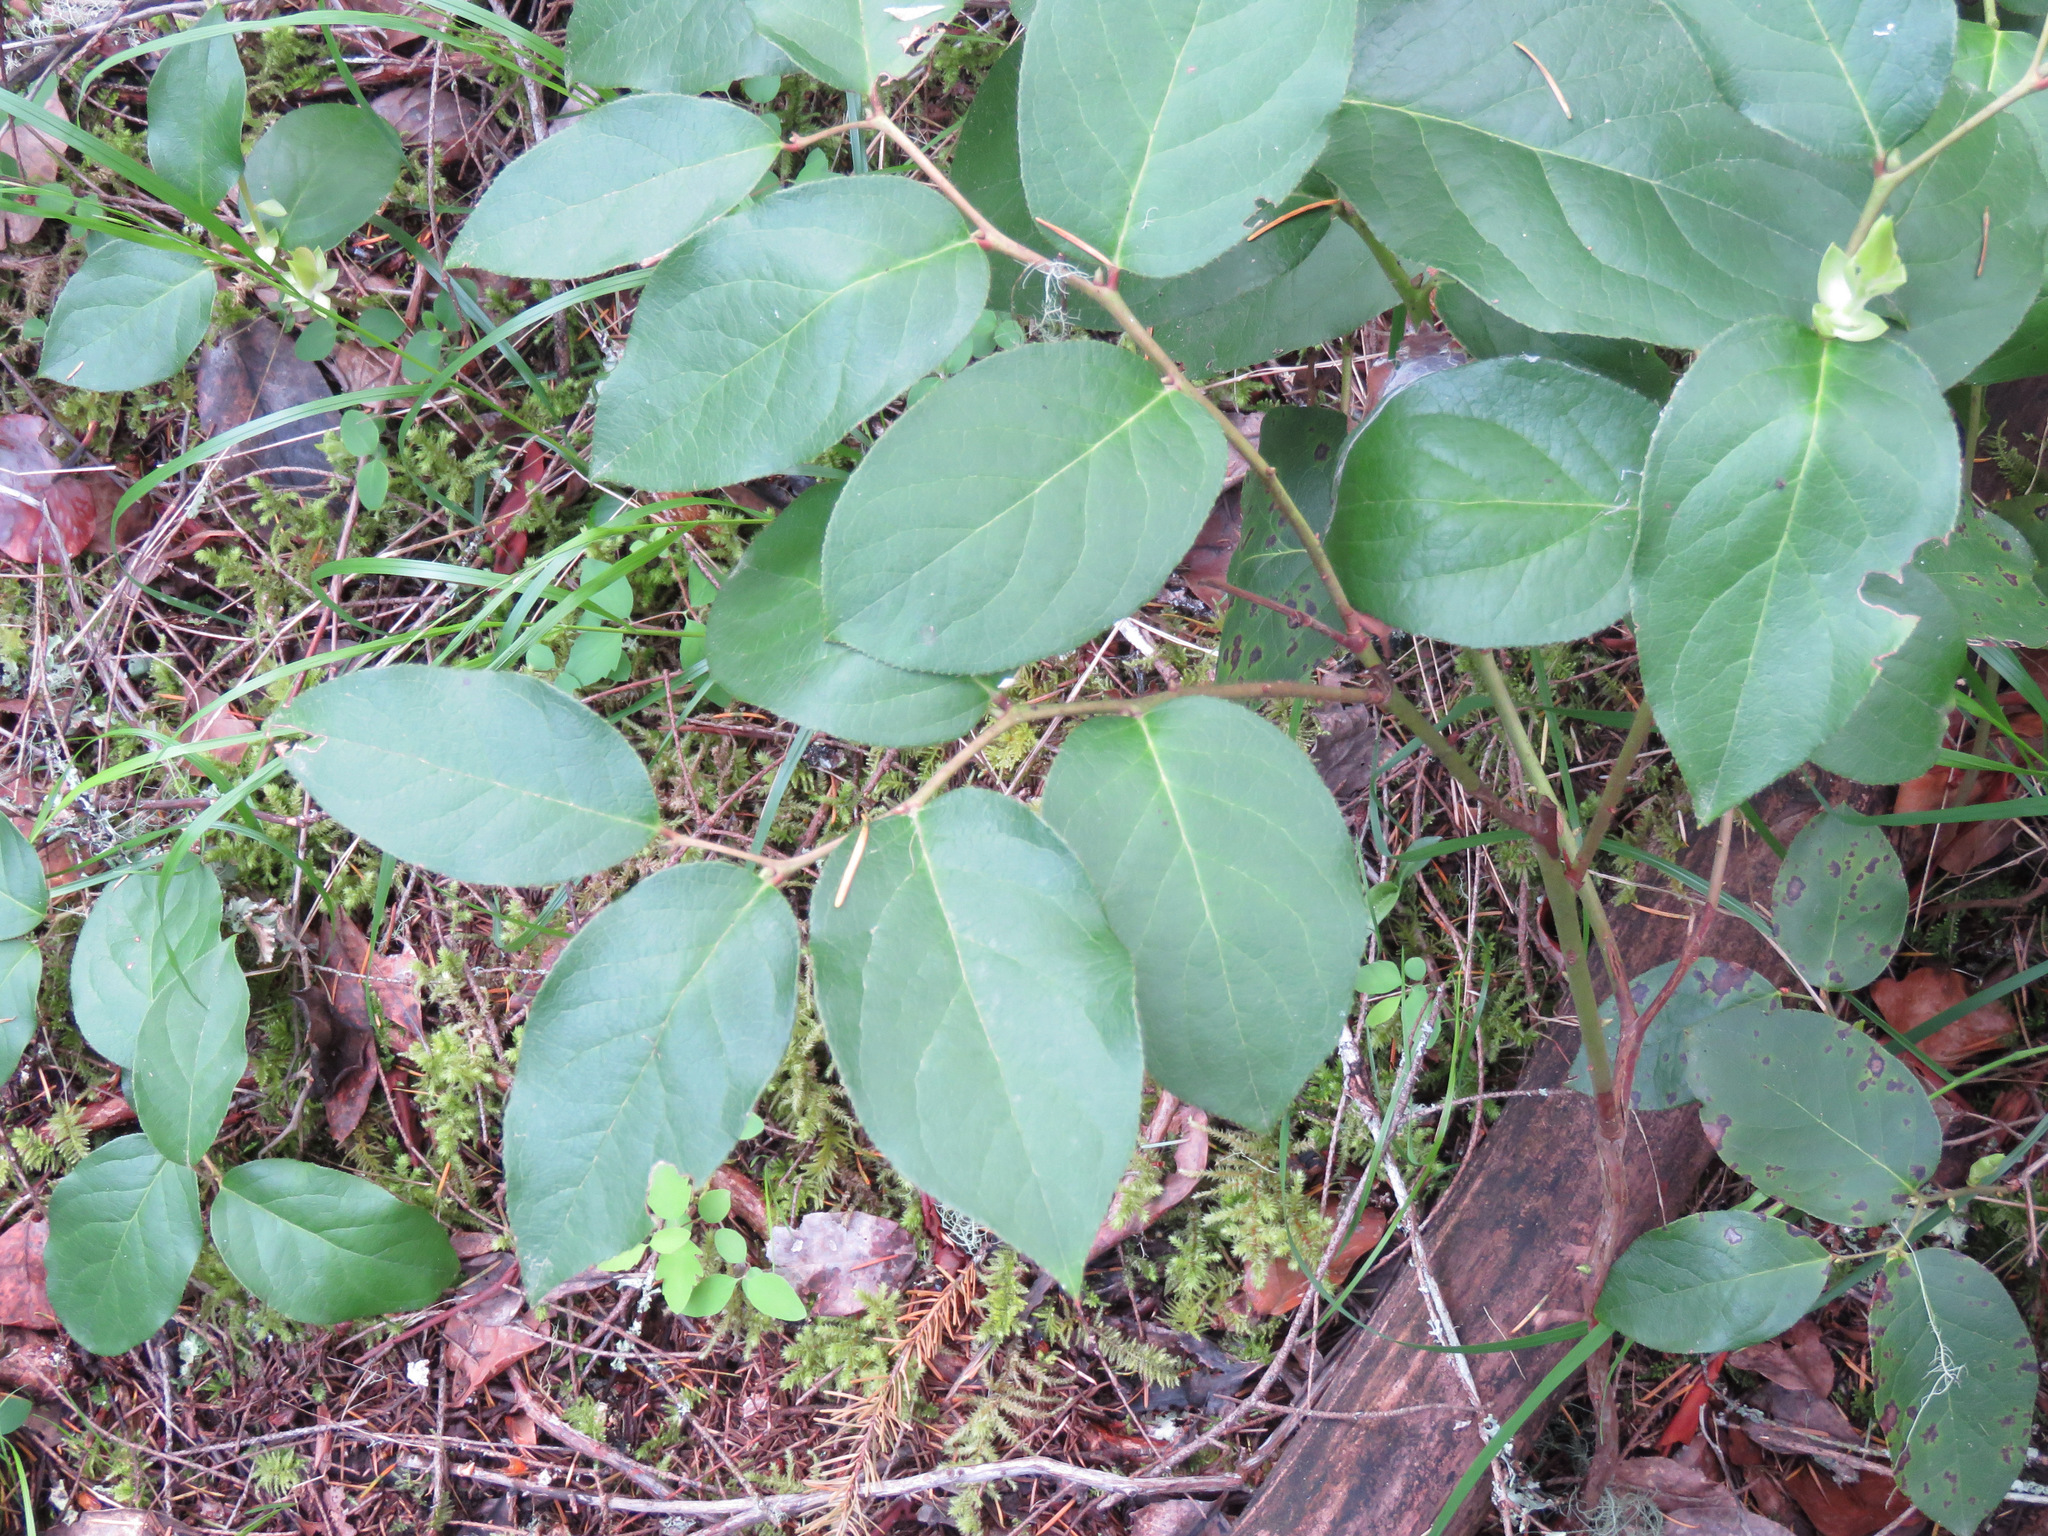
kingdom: Plantae
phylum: Tracheophyta
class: Magnoliopsida
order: Ericales
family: Ericaceae
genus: Gaultheria
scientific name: Gaultheria shallon
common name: Shallon
